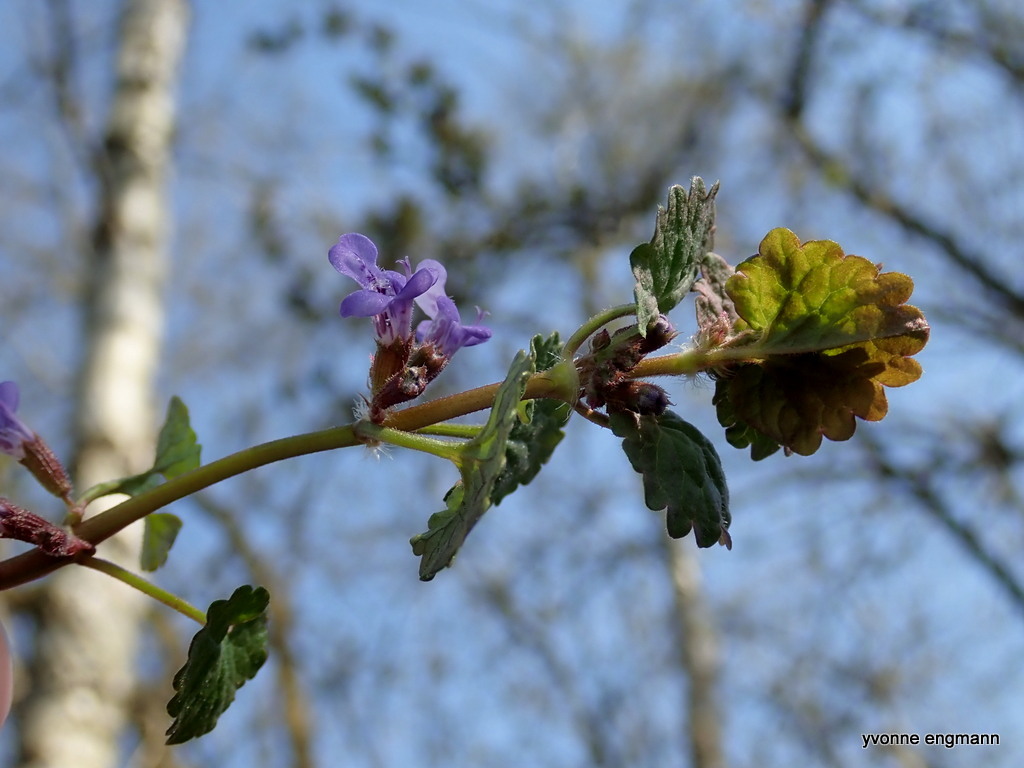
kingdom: Plantae
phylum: Tracheophyta
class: Magnoliopsida
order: Lamiales
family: Lamiaceae
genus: Glechoma
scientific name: Glechoma hederacea
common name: Ground ivy
